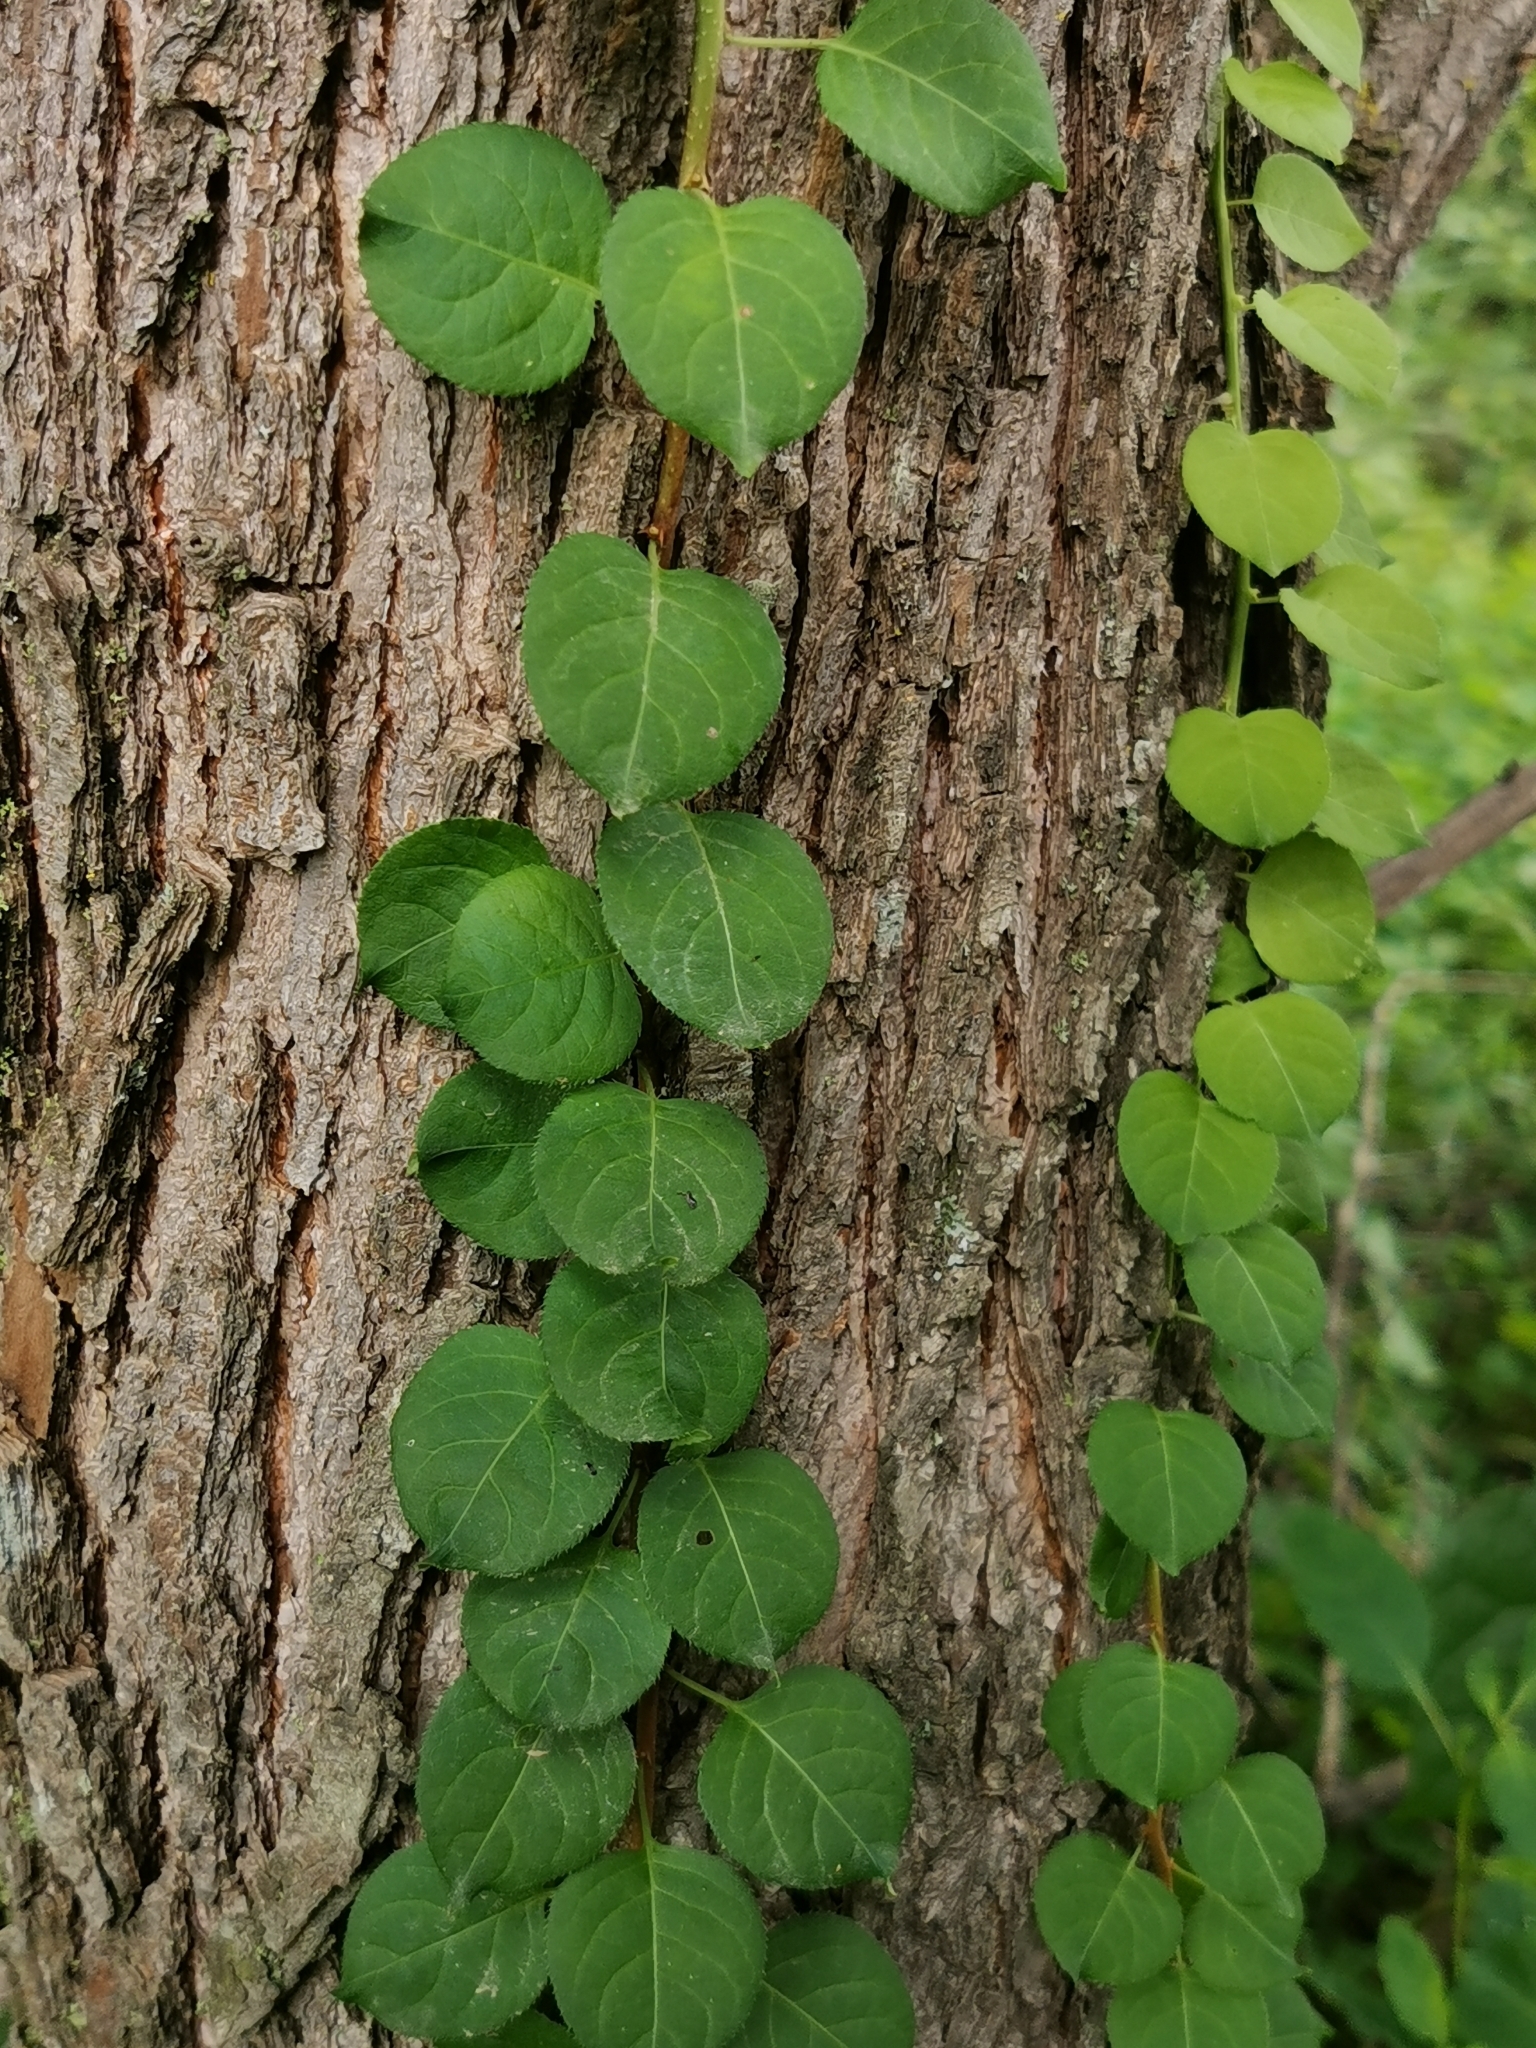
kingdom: Plantae
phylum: Tracheophyta
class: Magnoliopsida
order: Celastrales
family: Celastraceae
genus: Celastrus
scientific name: Celastrus flagellaris
